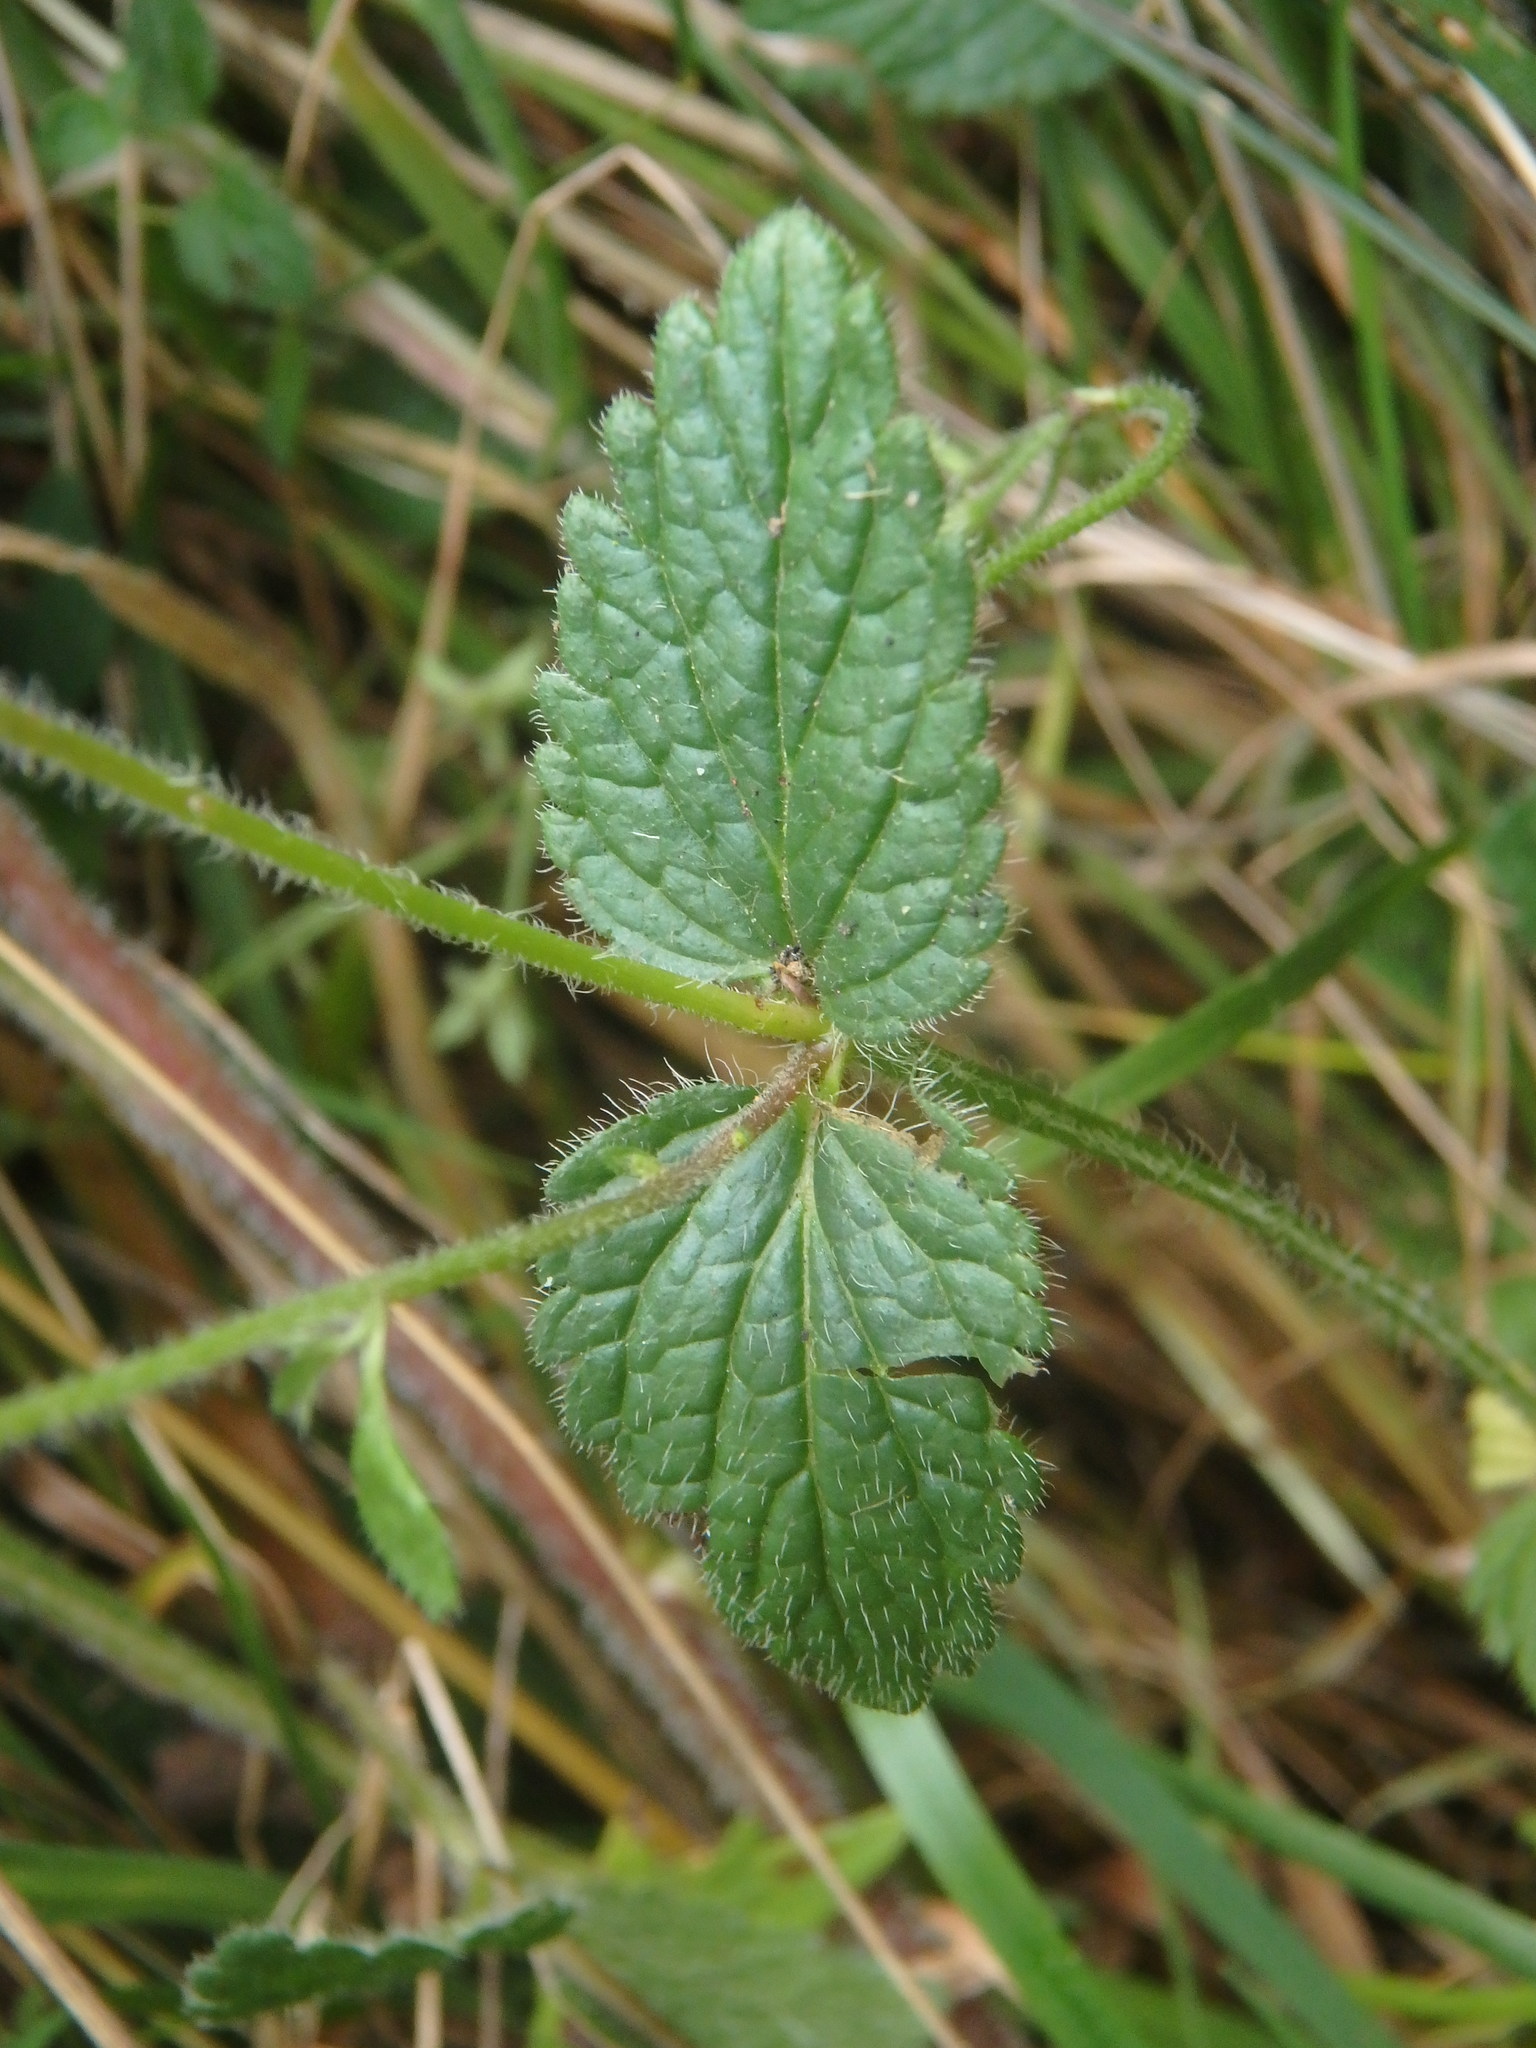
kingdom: Plantae
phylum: Tracheophyta
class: Magnoliopsida
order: Lamiales
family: Plantaginaceae
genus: Veronica
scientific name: Veronica chamaedrys
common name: Germander speedwell
